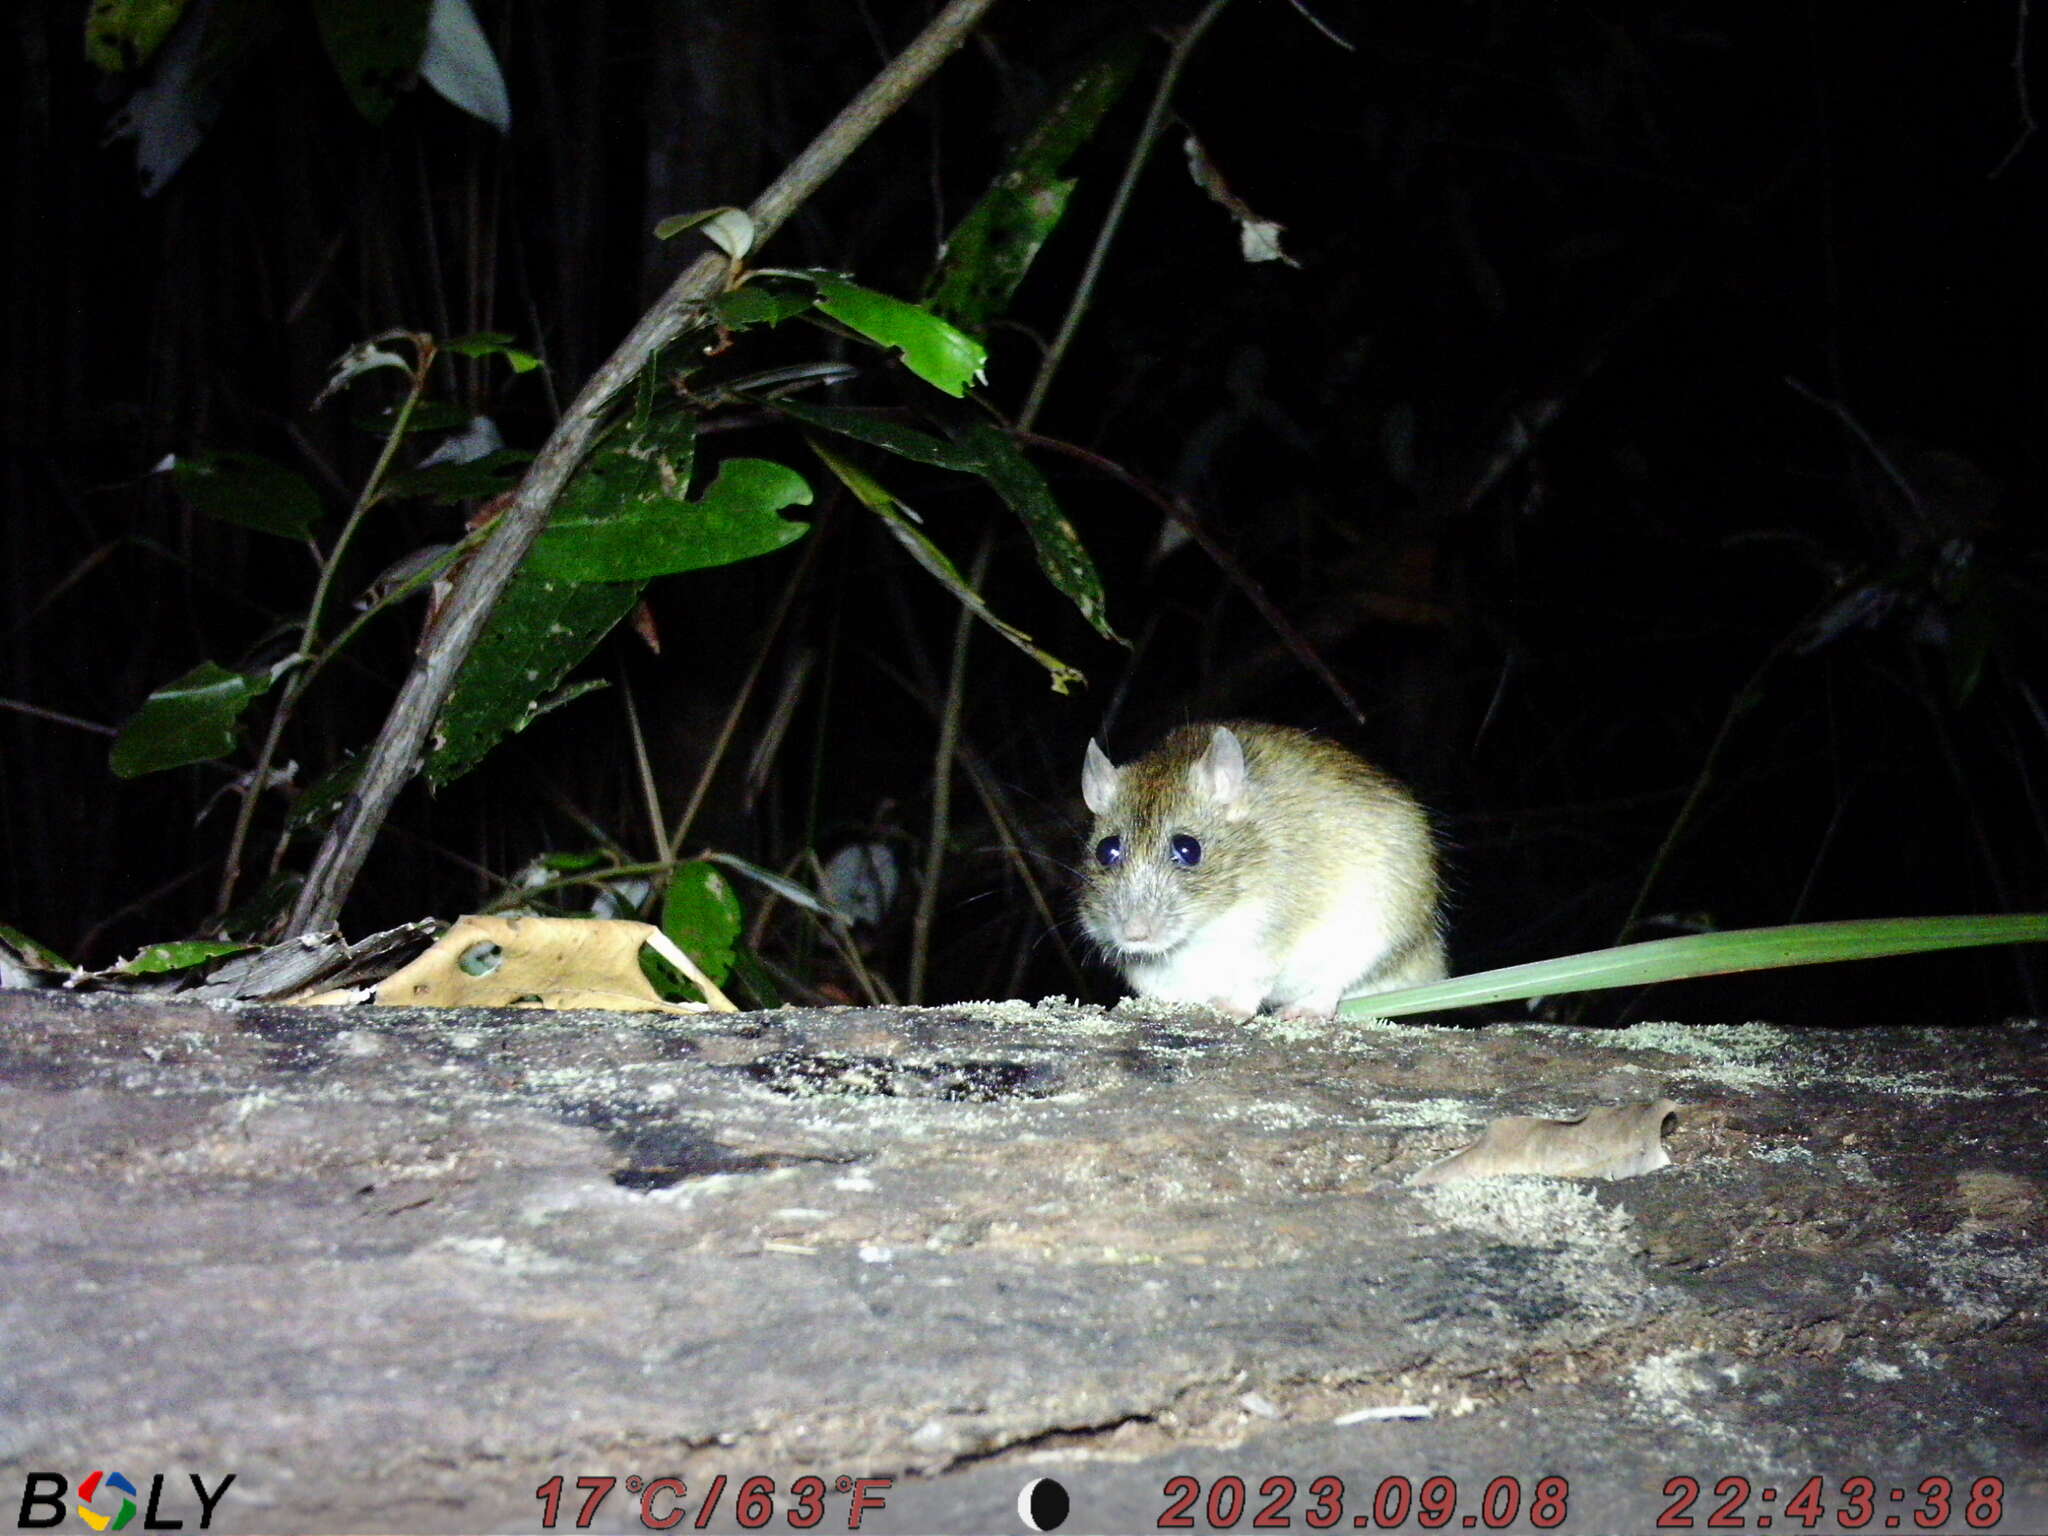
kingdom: Animalia
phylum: Chordata
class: Mammalia
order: Rodentia
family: Muridae
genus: Rattus
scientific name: Rattus tunneyi
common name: Australian pale field rat
